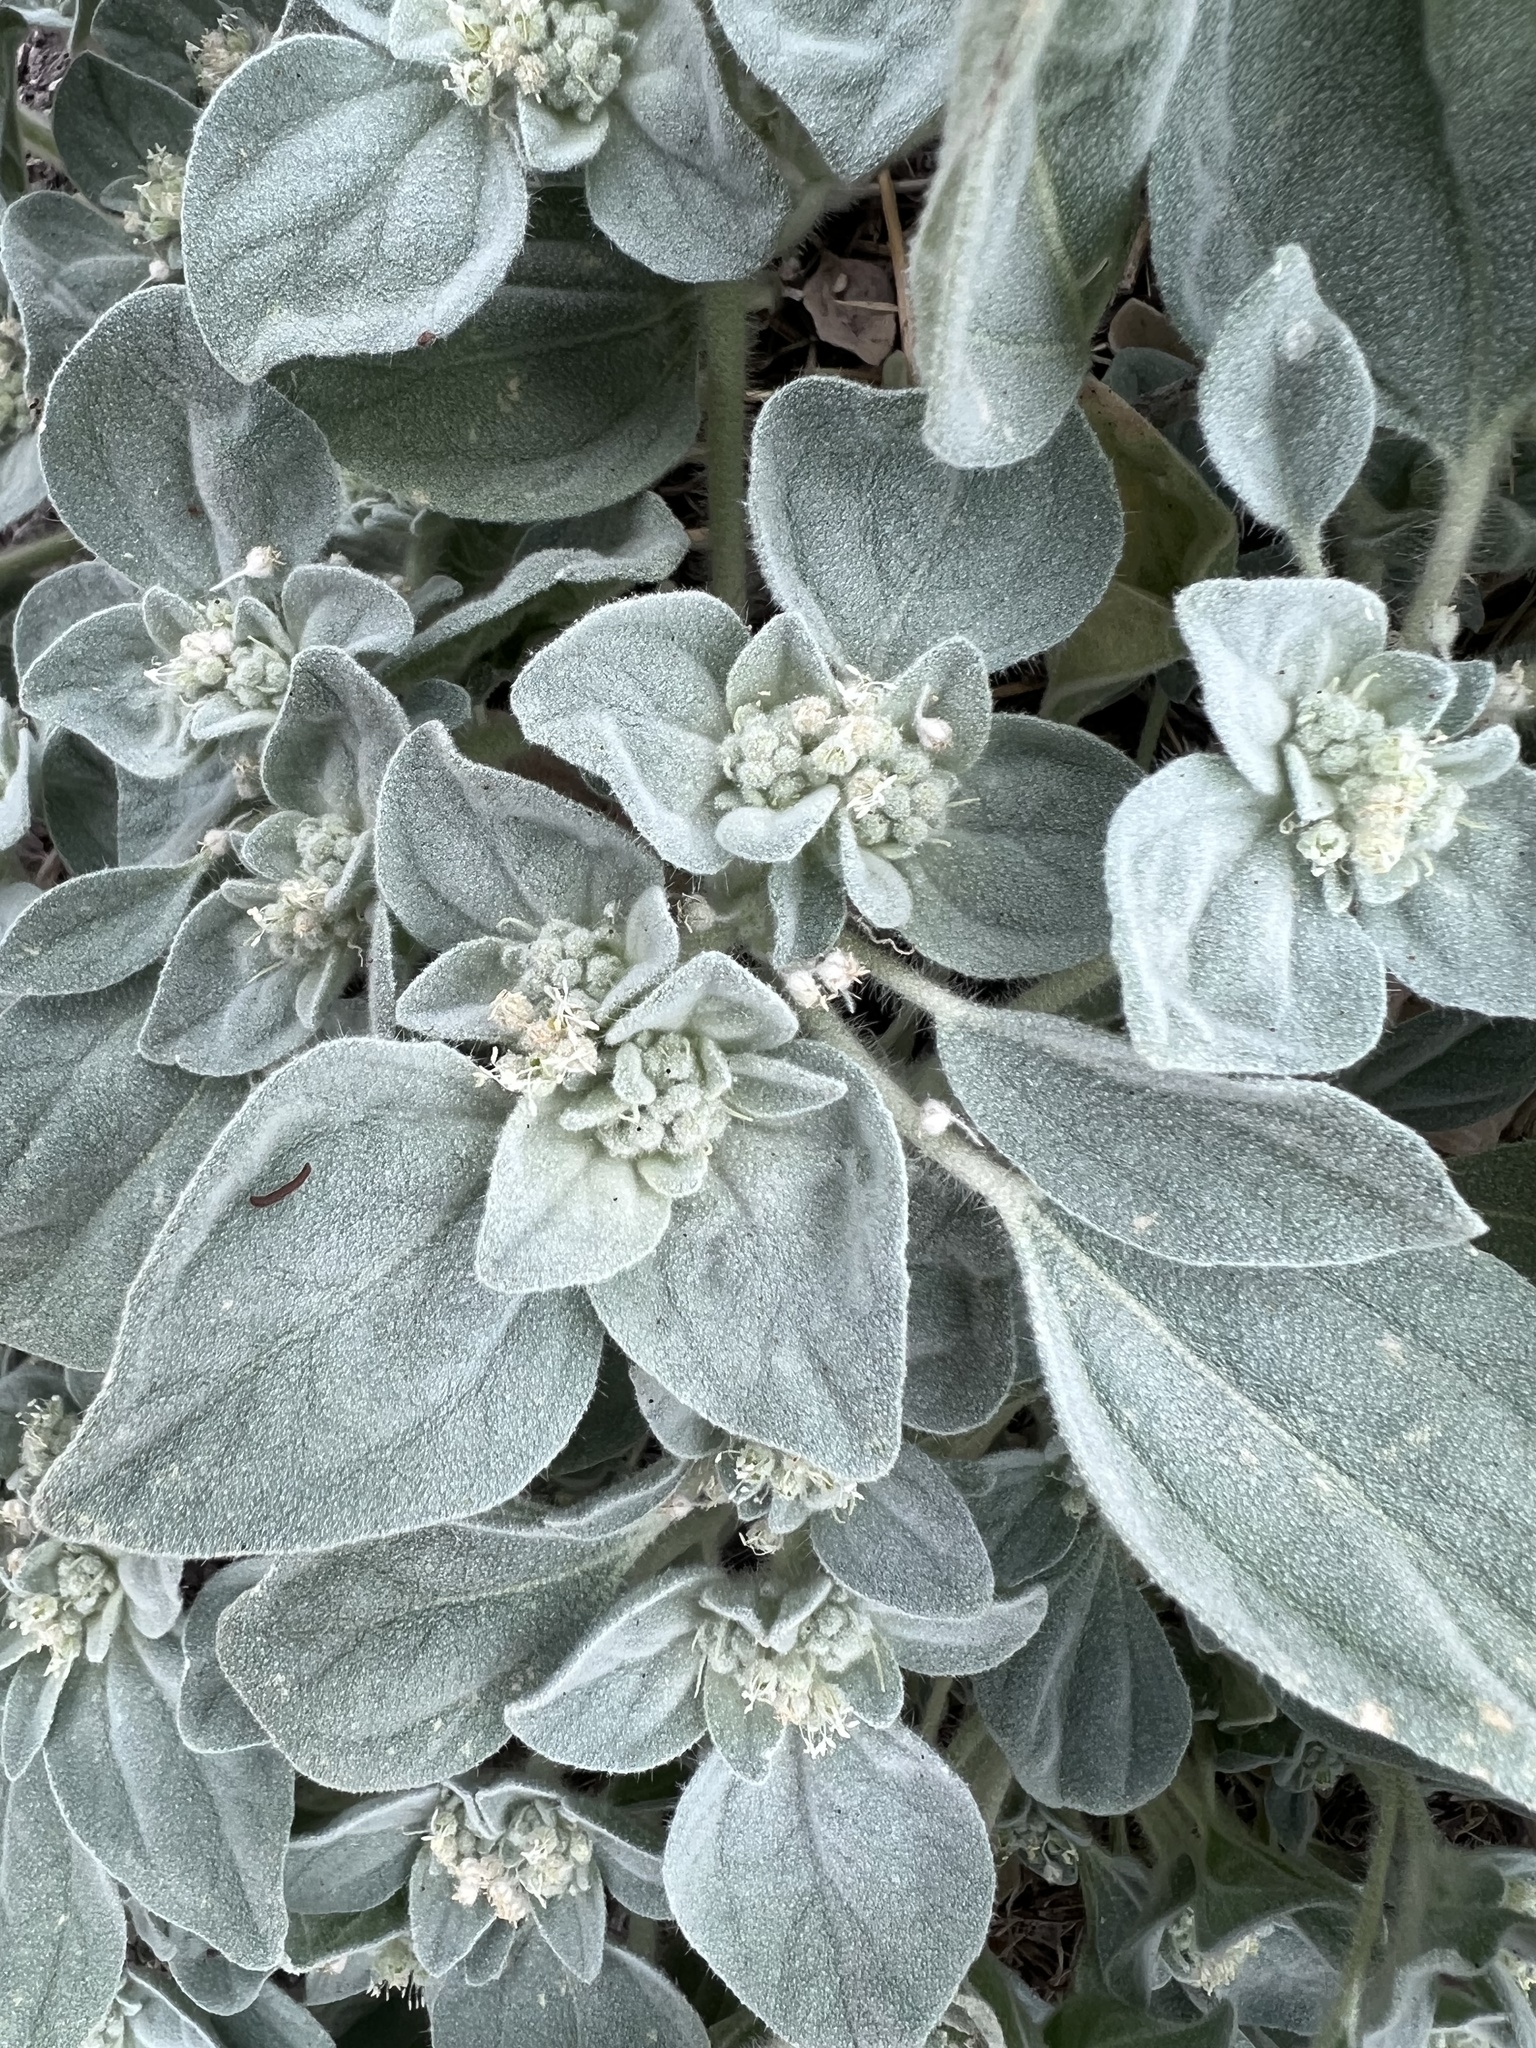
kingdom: Plantae
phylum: Tracheophyta
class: Magnoliopsida
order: Malpighiales
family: Euphorbiaceae
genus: Croton
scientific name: Croton setiger
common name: Dove weed
